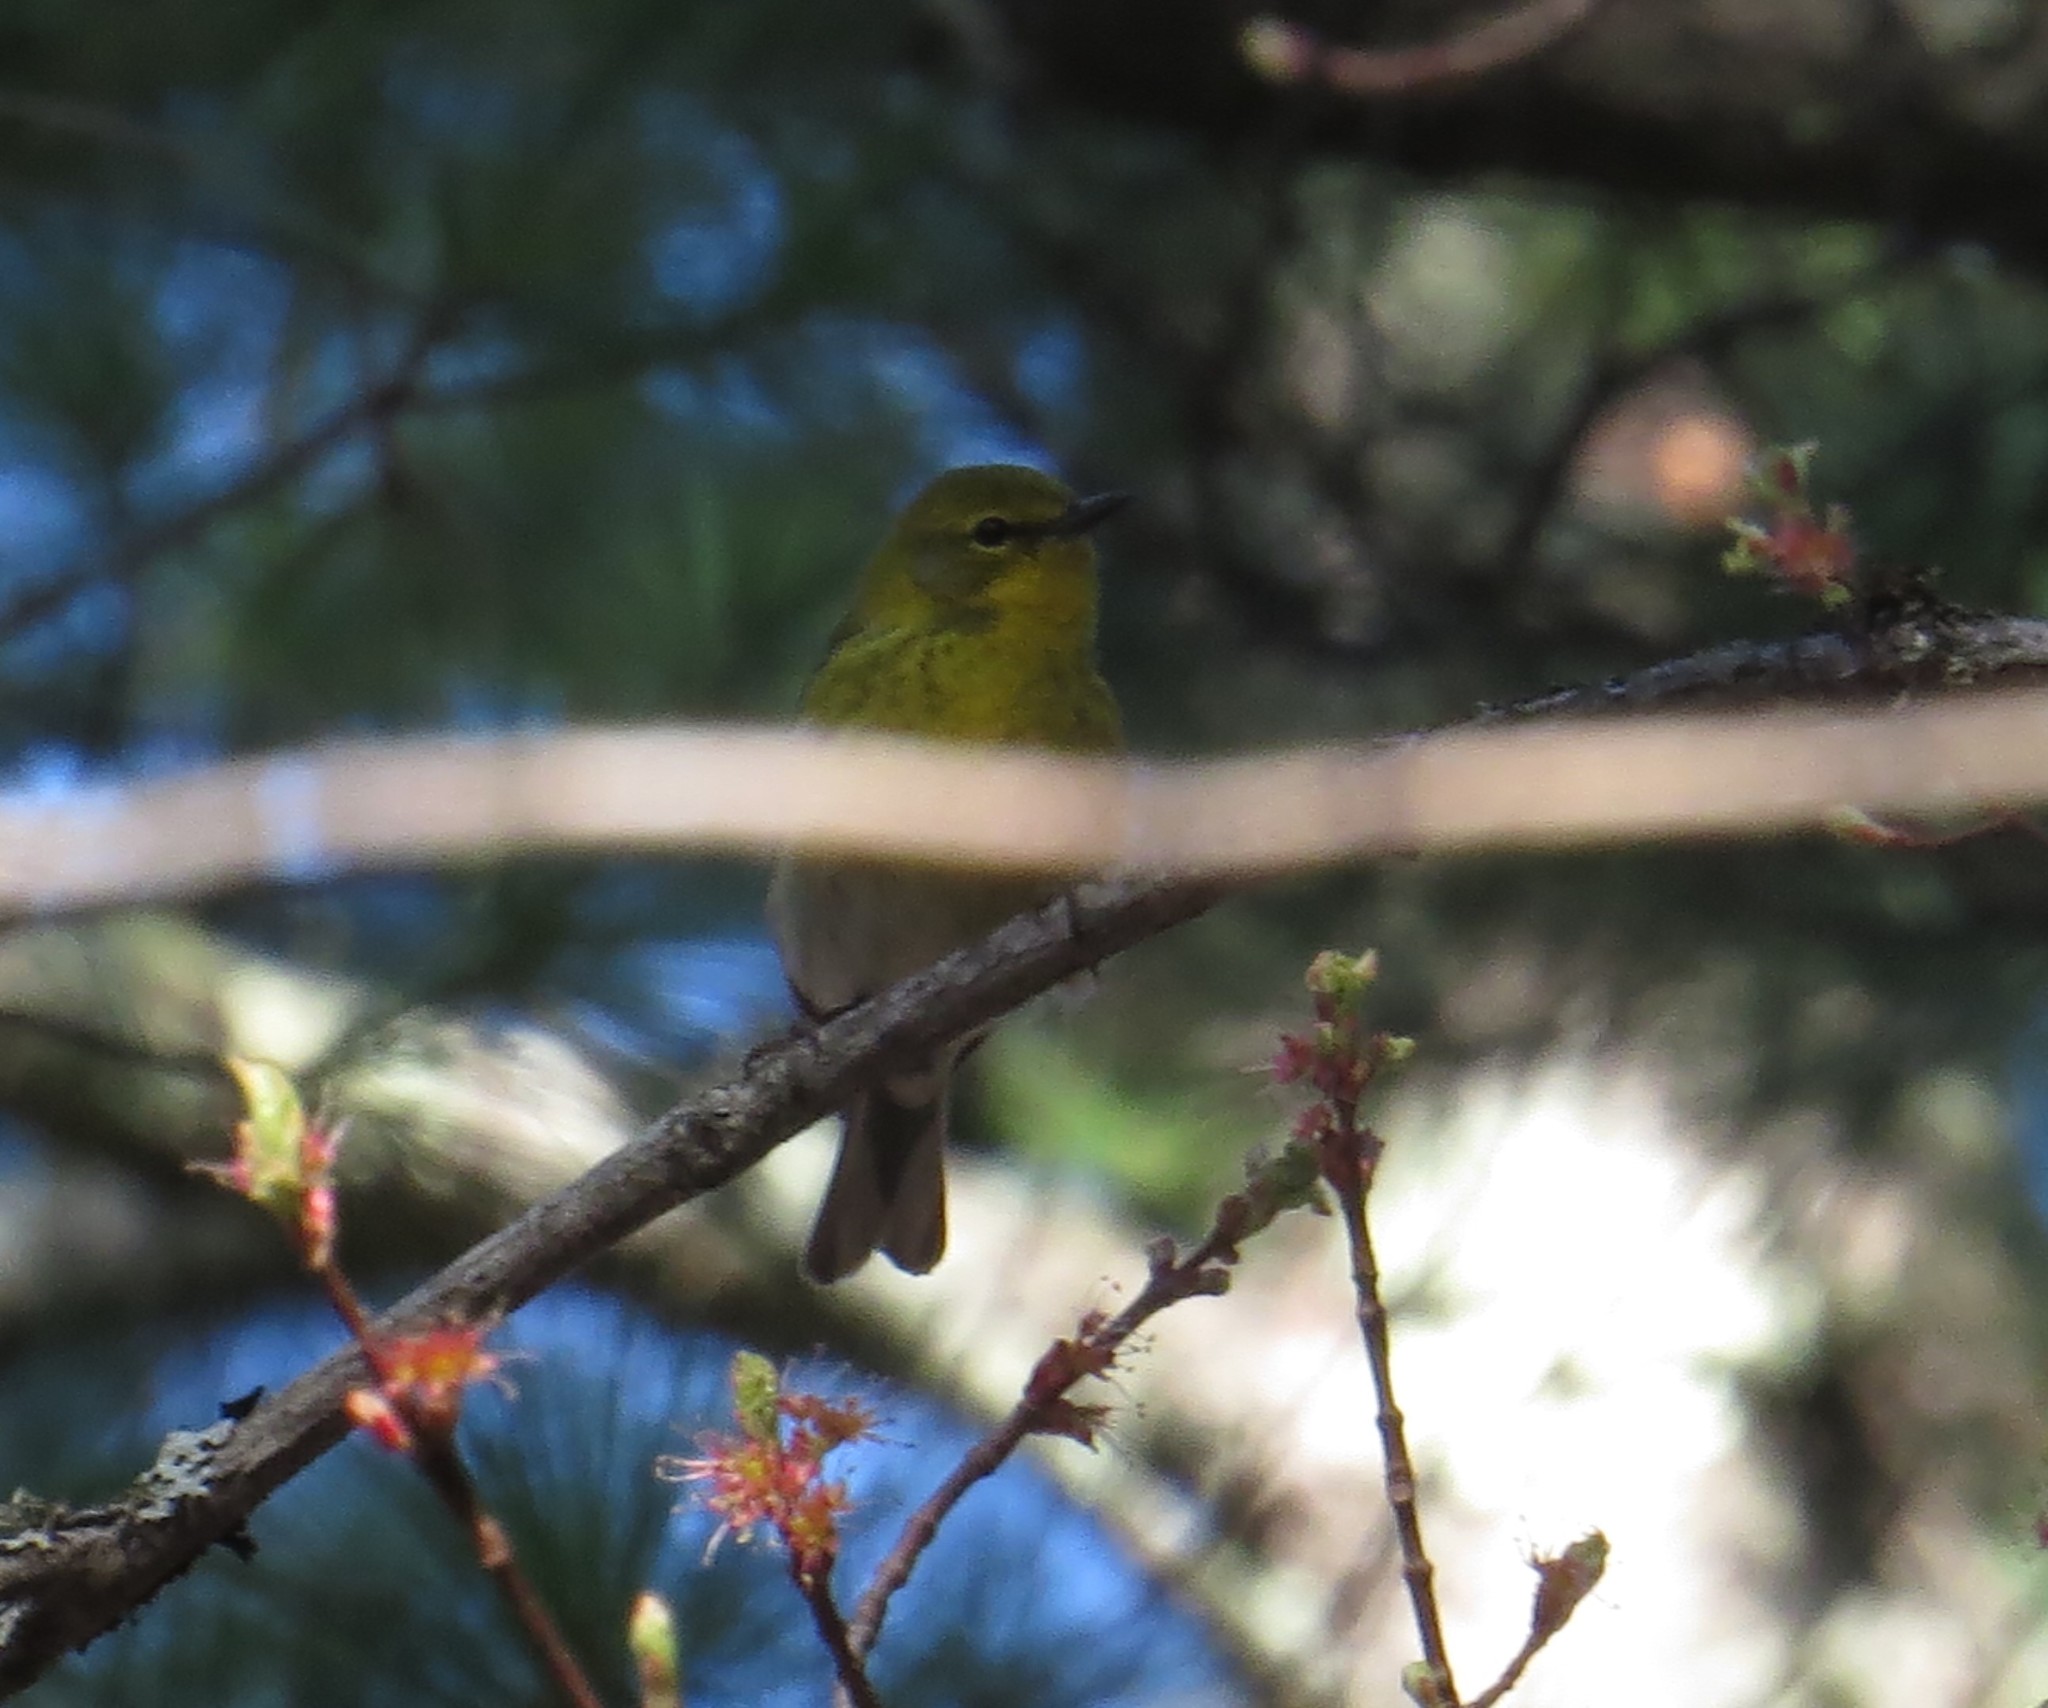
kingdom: Animalia
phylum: Chordata
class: Aves
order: Passeriformes
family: Parulidae
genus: Setophaga
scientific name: Setophaga pinus
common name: Pine warbler
